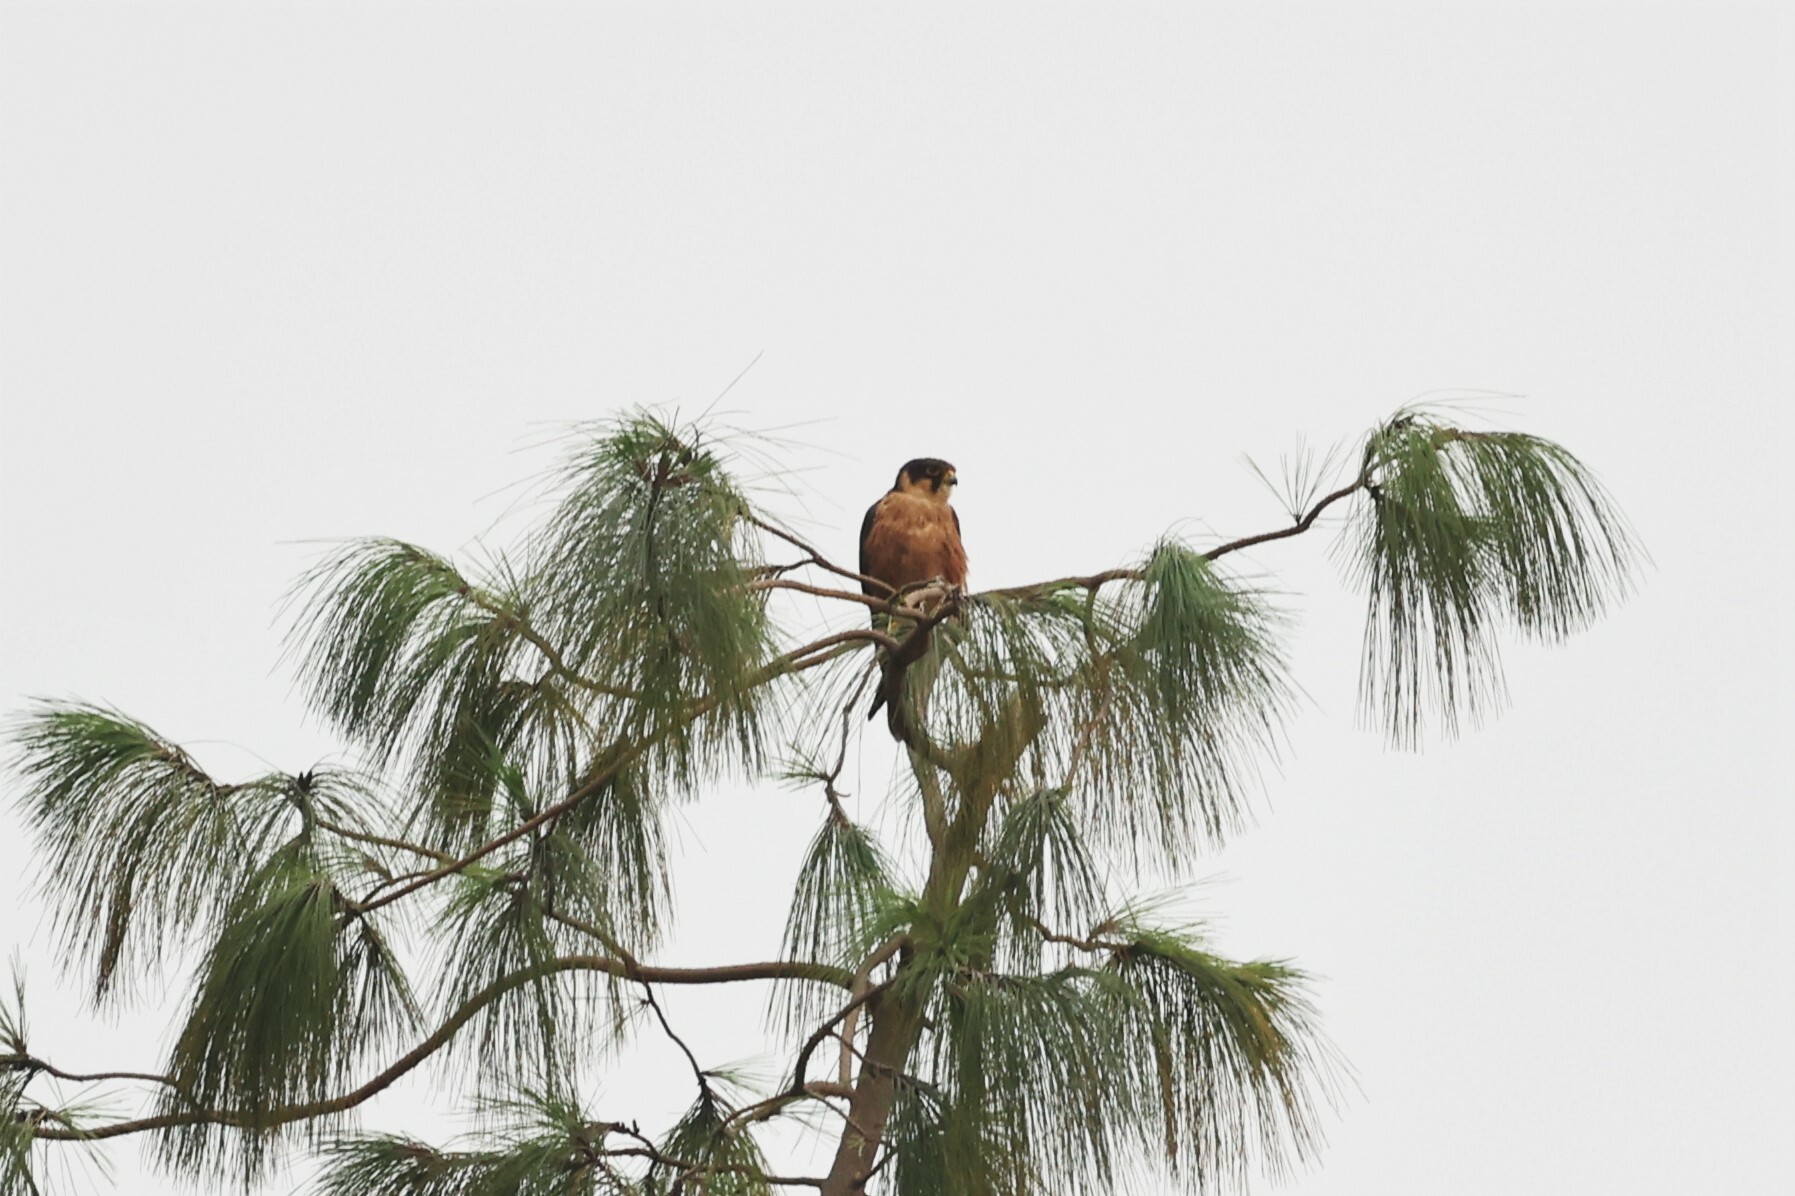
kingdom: Animalia
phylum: Chordata
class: Aves
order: Falconiformes
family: Falconidae
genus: Falco
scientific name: Falco cuvierii
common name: African hobby
